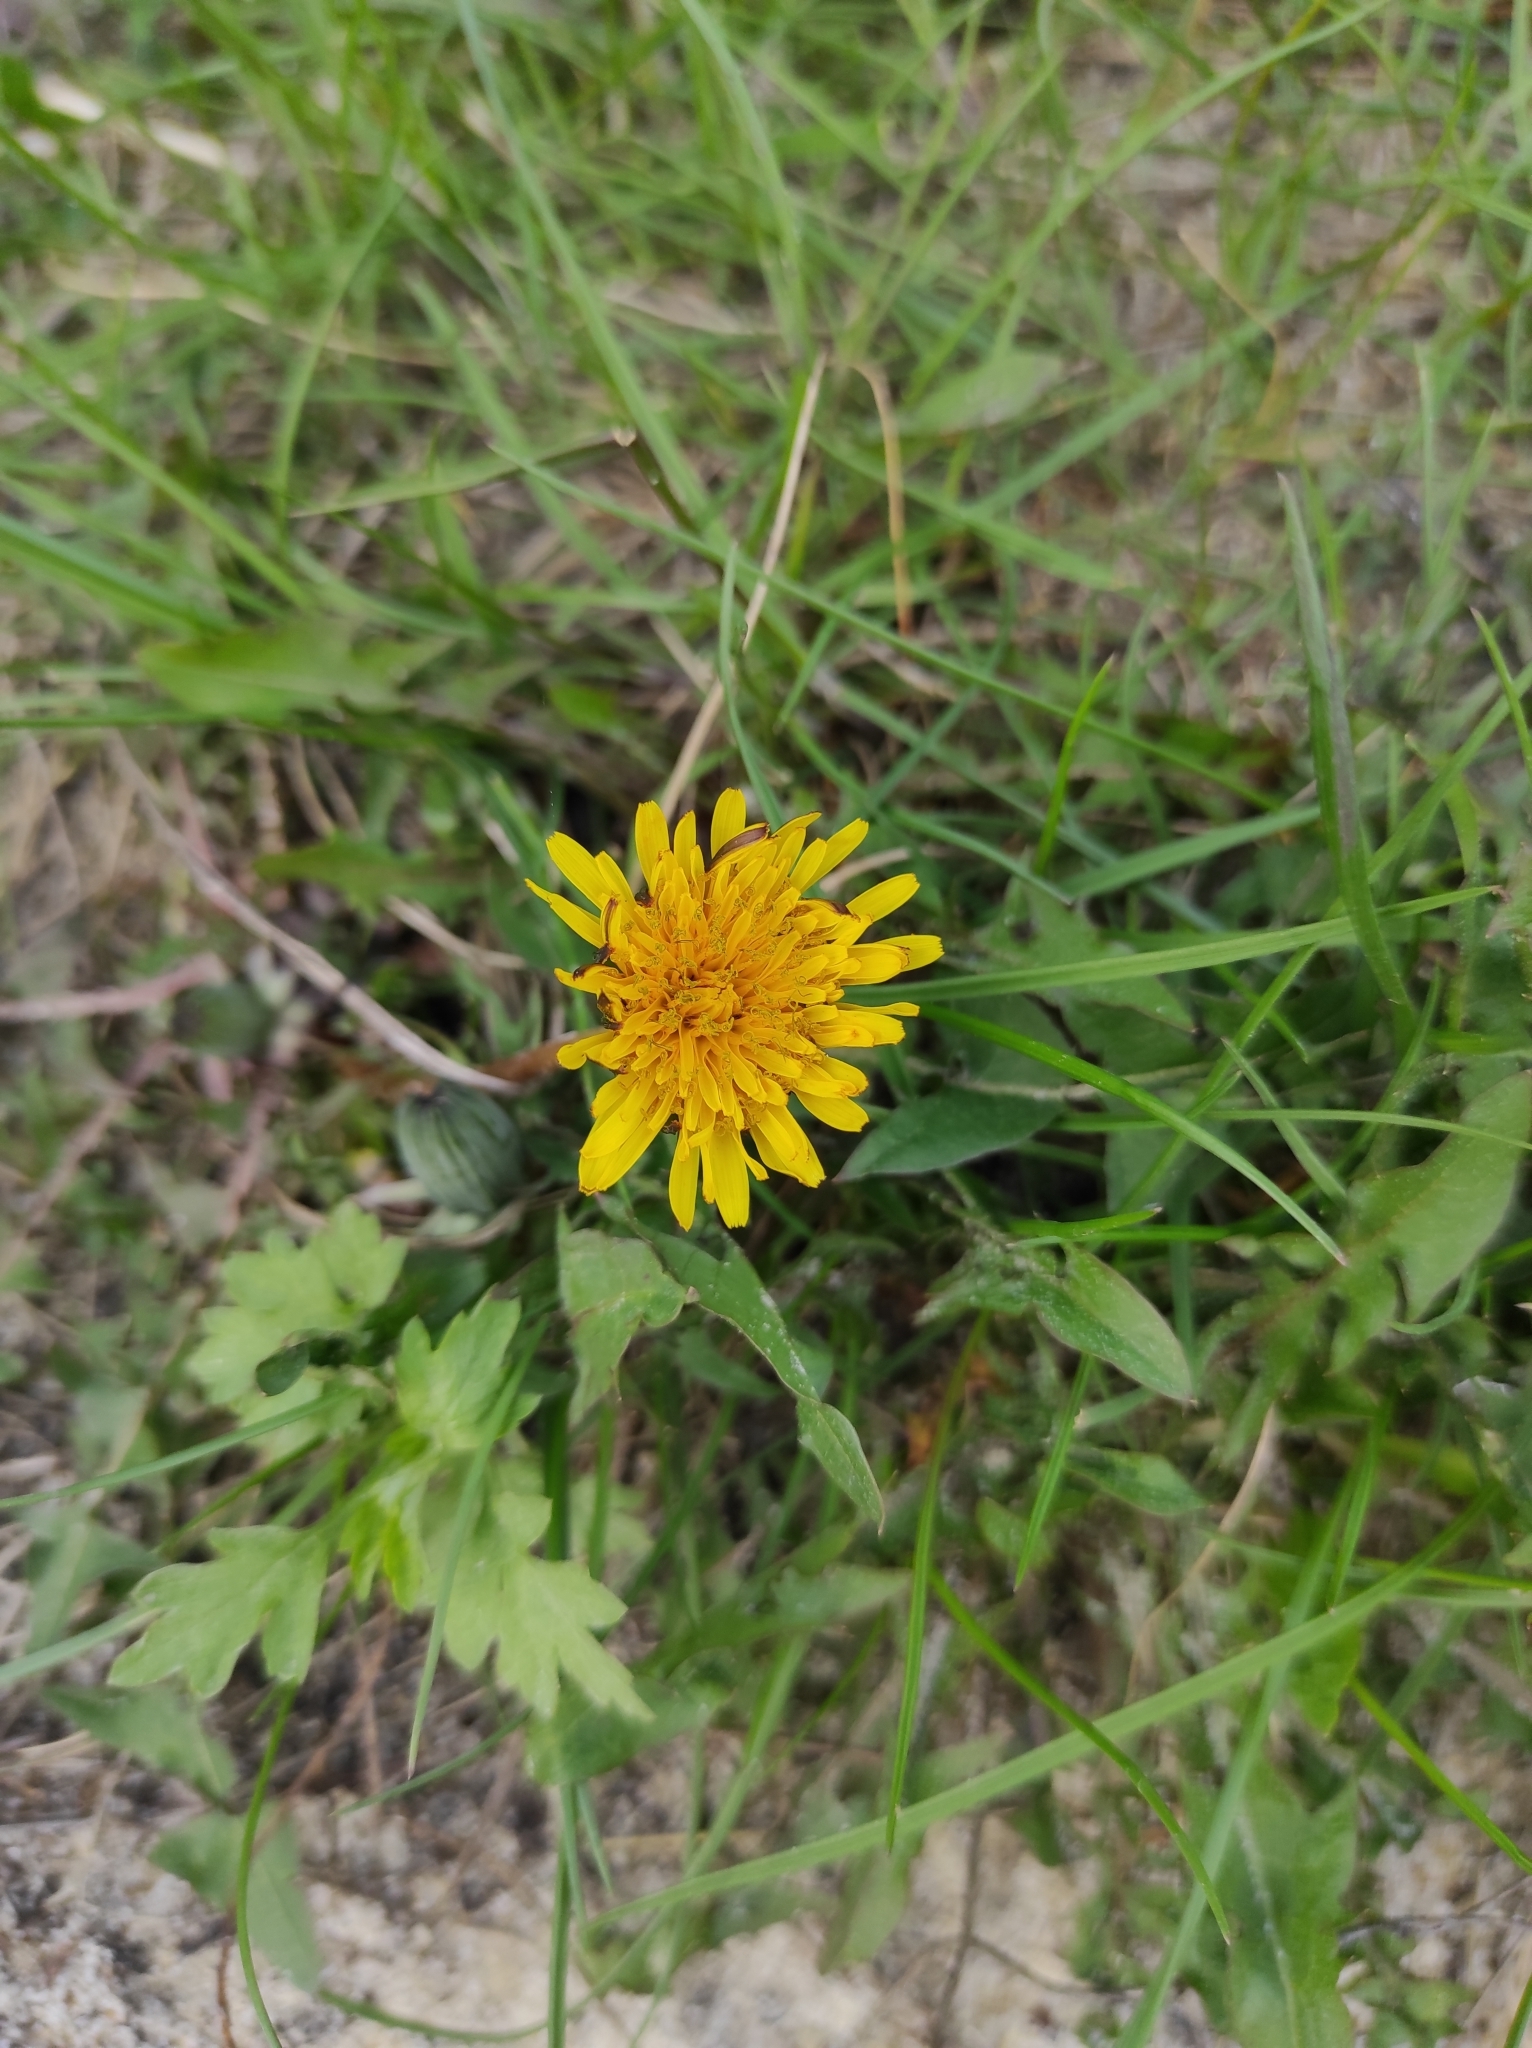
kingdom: Plantae
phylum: Tracheophyta
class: Magnoliopsida
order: Asterales
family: Asteraceae
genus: Taraxacum
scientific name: Taraxacum officinale
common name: Common dandelion
